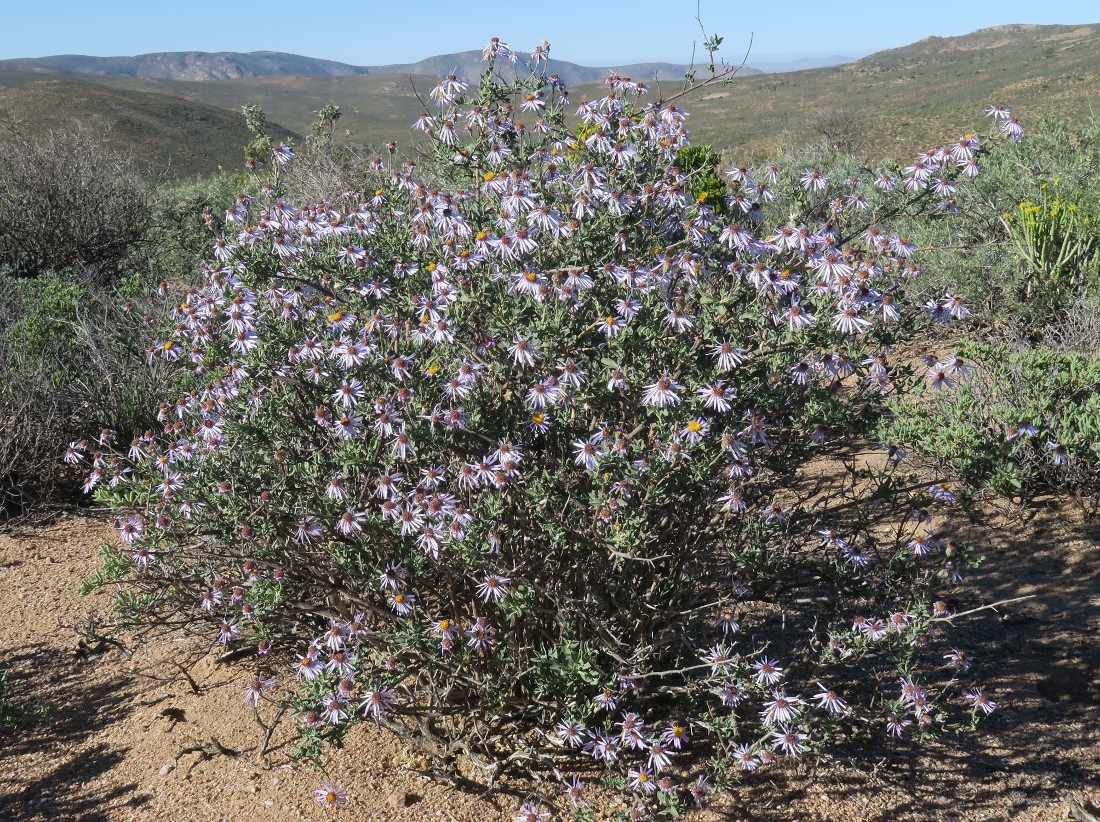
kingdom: Plantae
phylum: Tracheophyta
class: Magnoliopsida
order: Asterales
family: Asteraceae
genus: Felicia
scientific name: Felicia dregei
